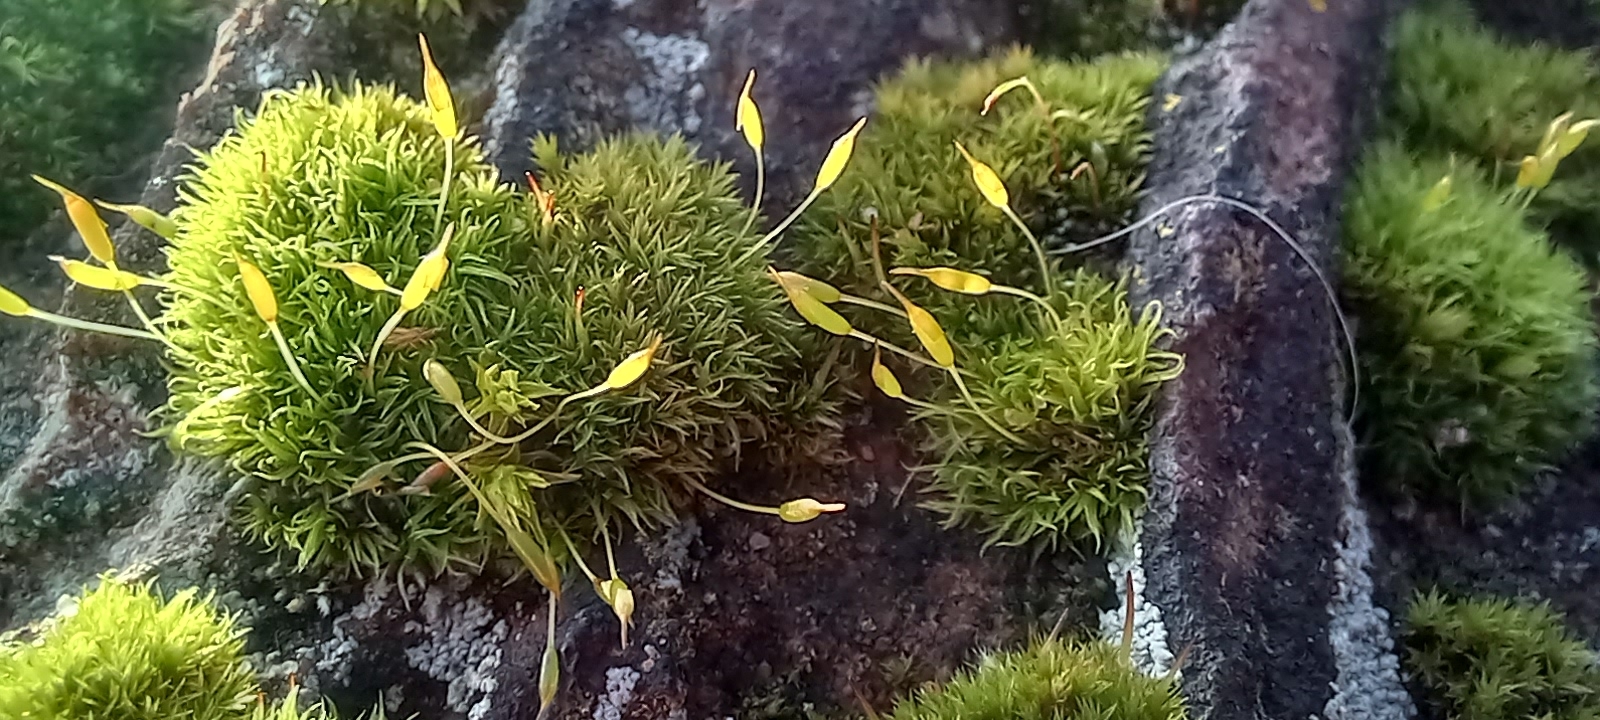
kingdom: Plantae
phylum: Bryophyta
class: Bryopsida
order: Dicranales
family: Rhabdoweisiaceae
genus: Dicranoweisia
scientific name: Dicranoweisia cirrata
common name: Common pincushion
